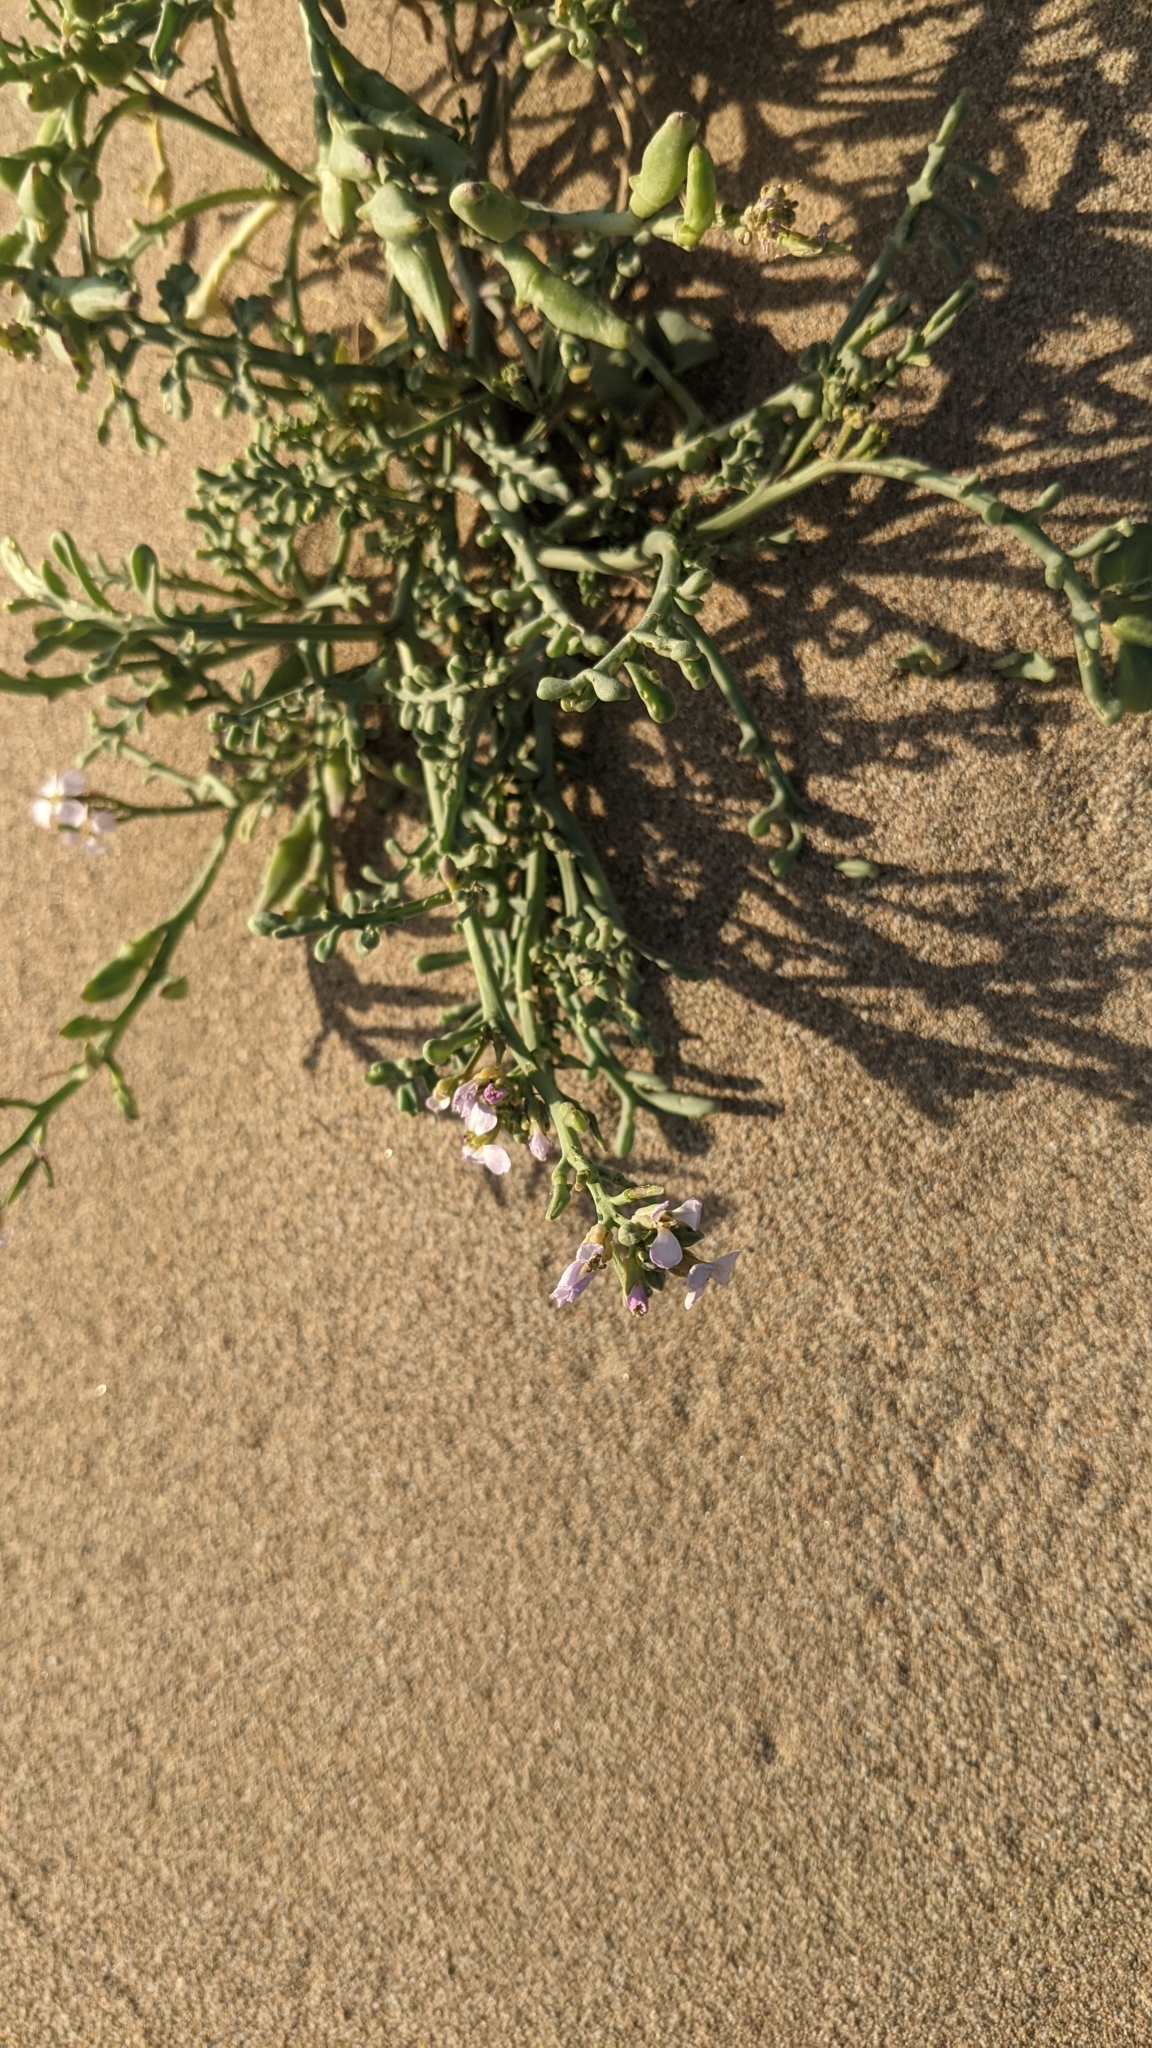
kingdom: Plantae
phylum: Tracheophyta
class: Magnoliopsida
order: Brassicales
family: Brassicaceae
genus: Cakile
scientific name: Cakile maritima
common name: Sea rocket
